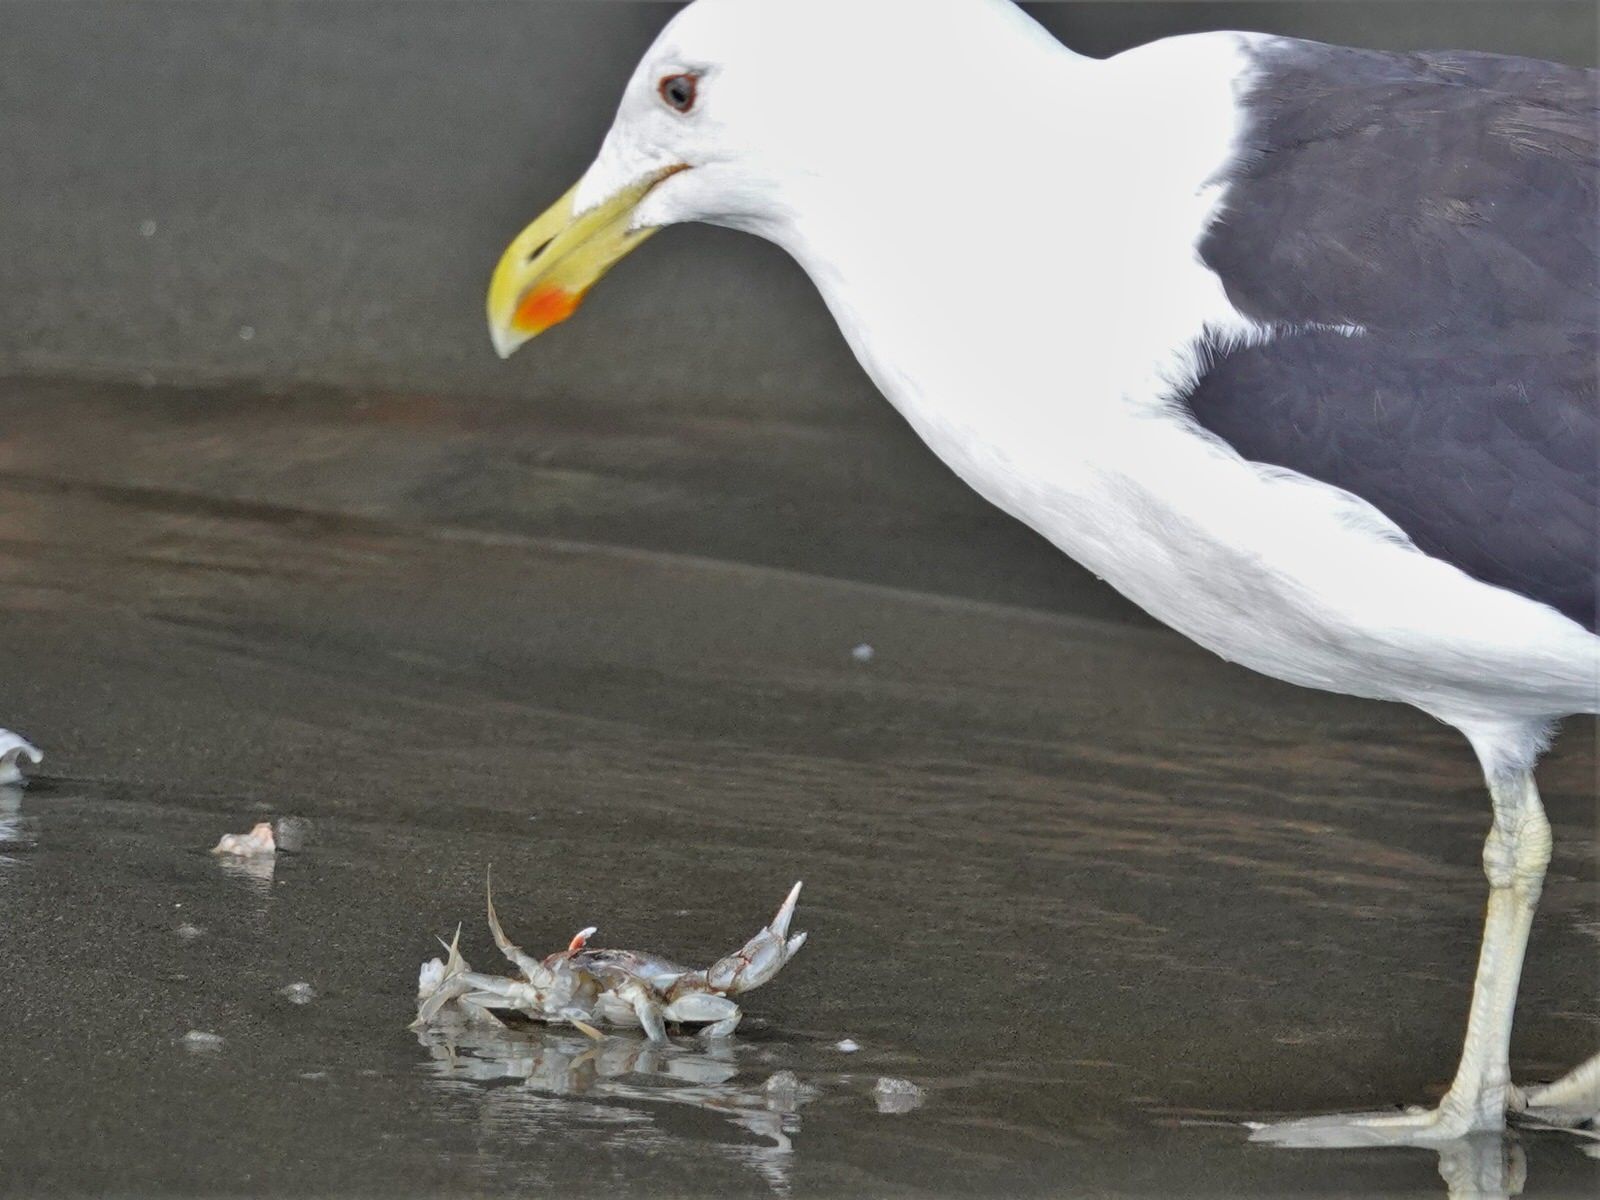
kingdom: Animalia
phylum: Chordata
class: Aves
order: Charadriiformes
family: Laridae
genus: Larus
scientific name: Larus dominicanus
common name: Kelp gull
